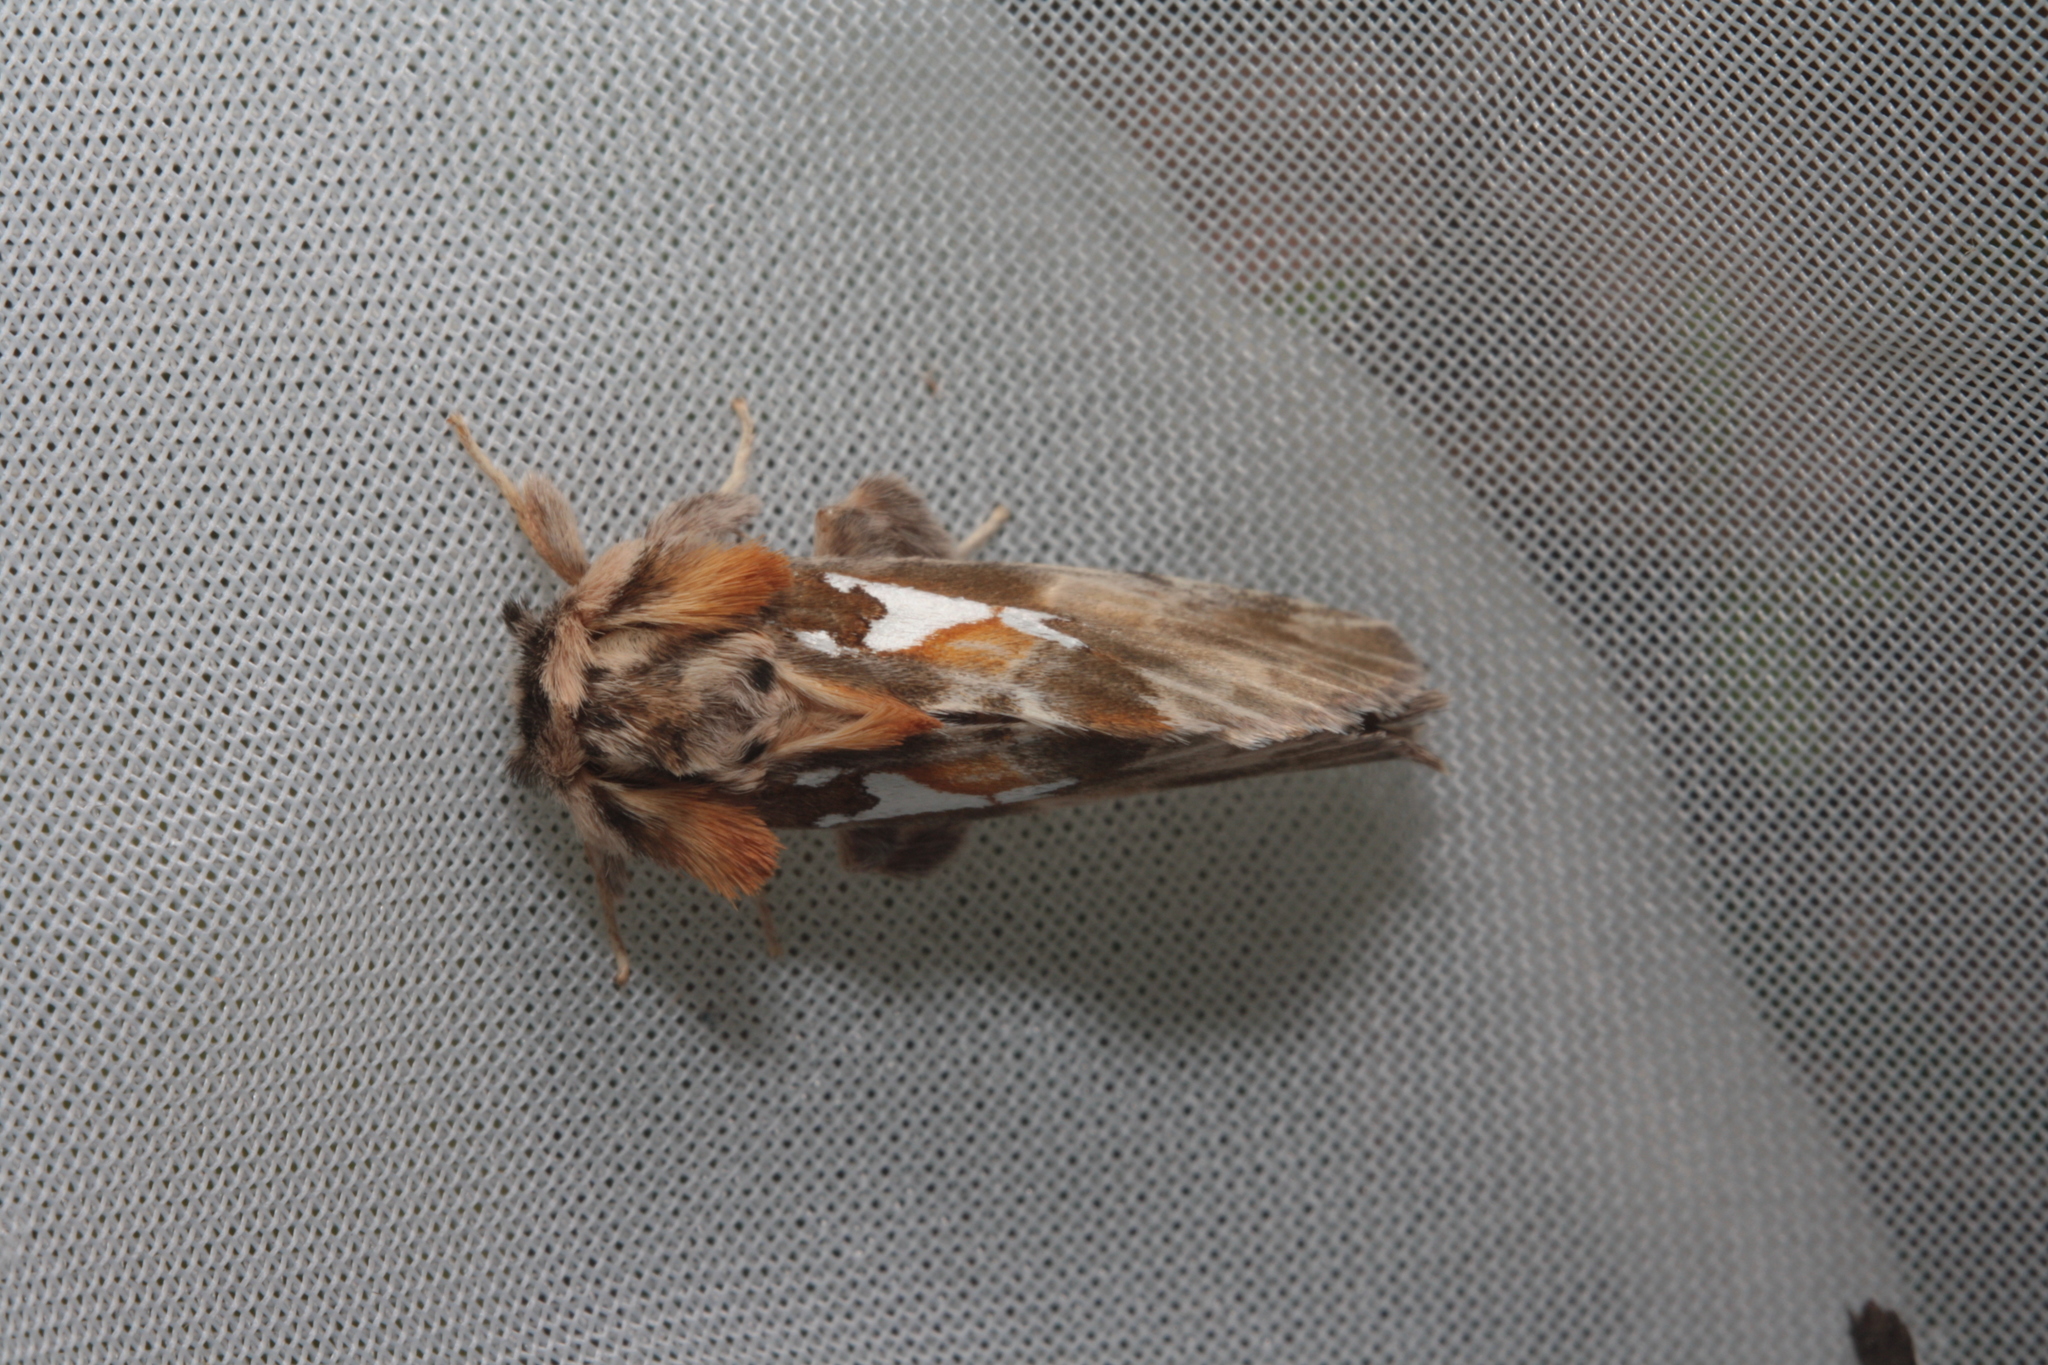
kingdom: Animalia
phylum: Arthropoda
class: Insecta
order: Lepidoptera
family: Notodontidae
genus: Spatalia
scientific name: Spatalia argentina
